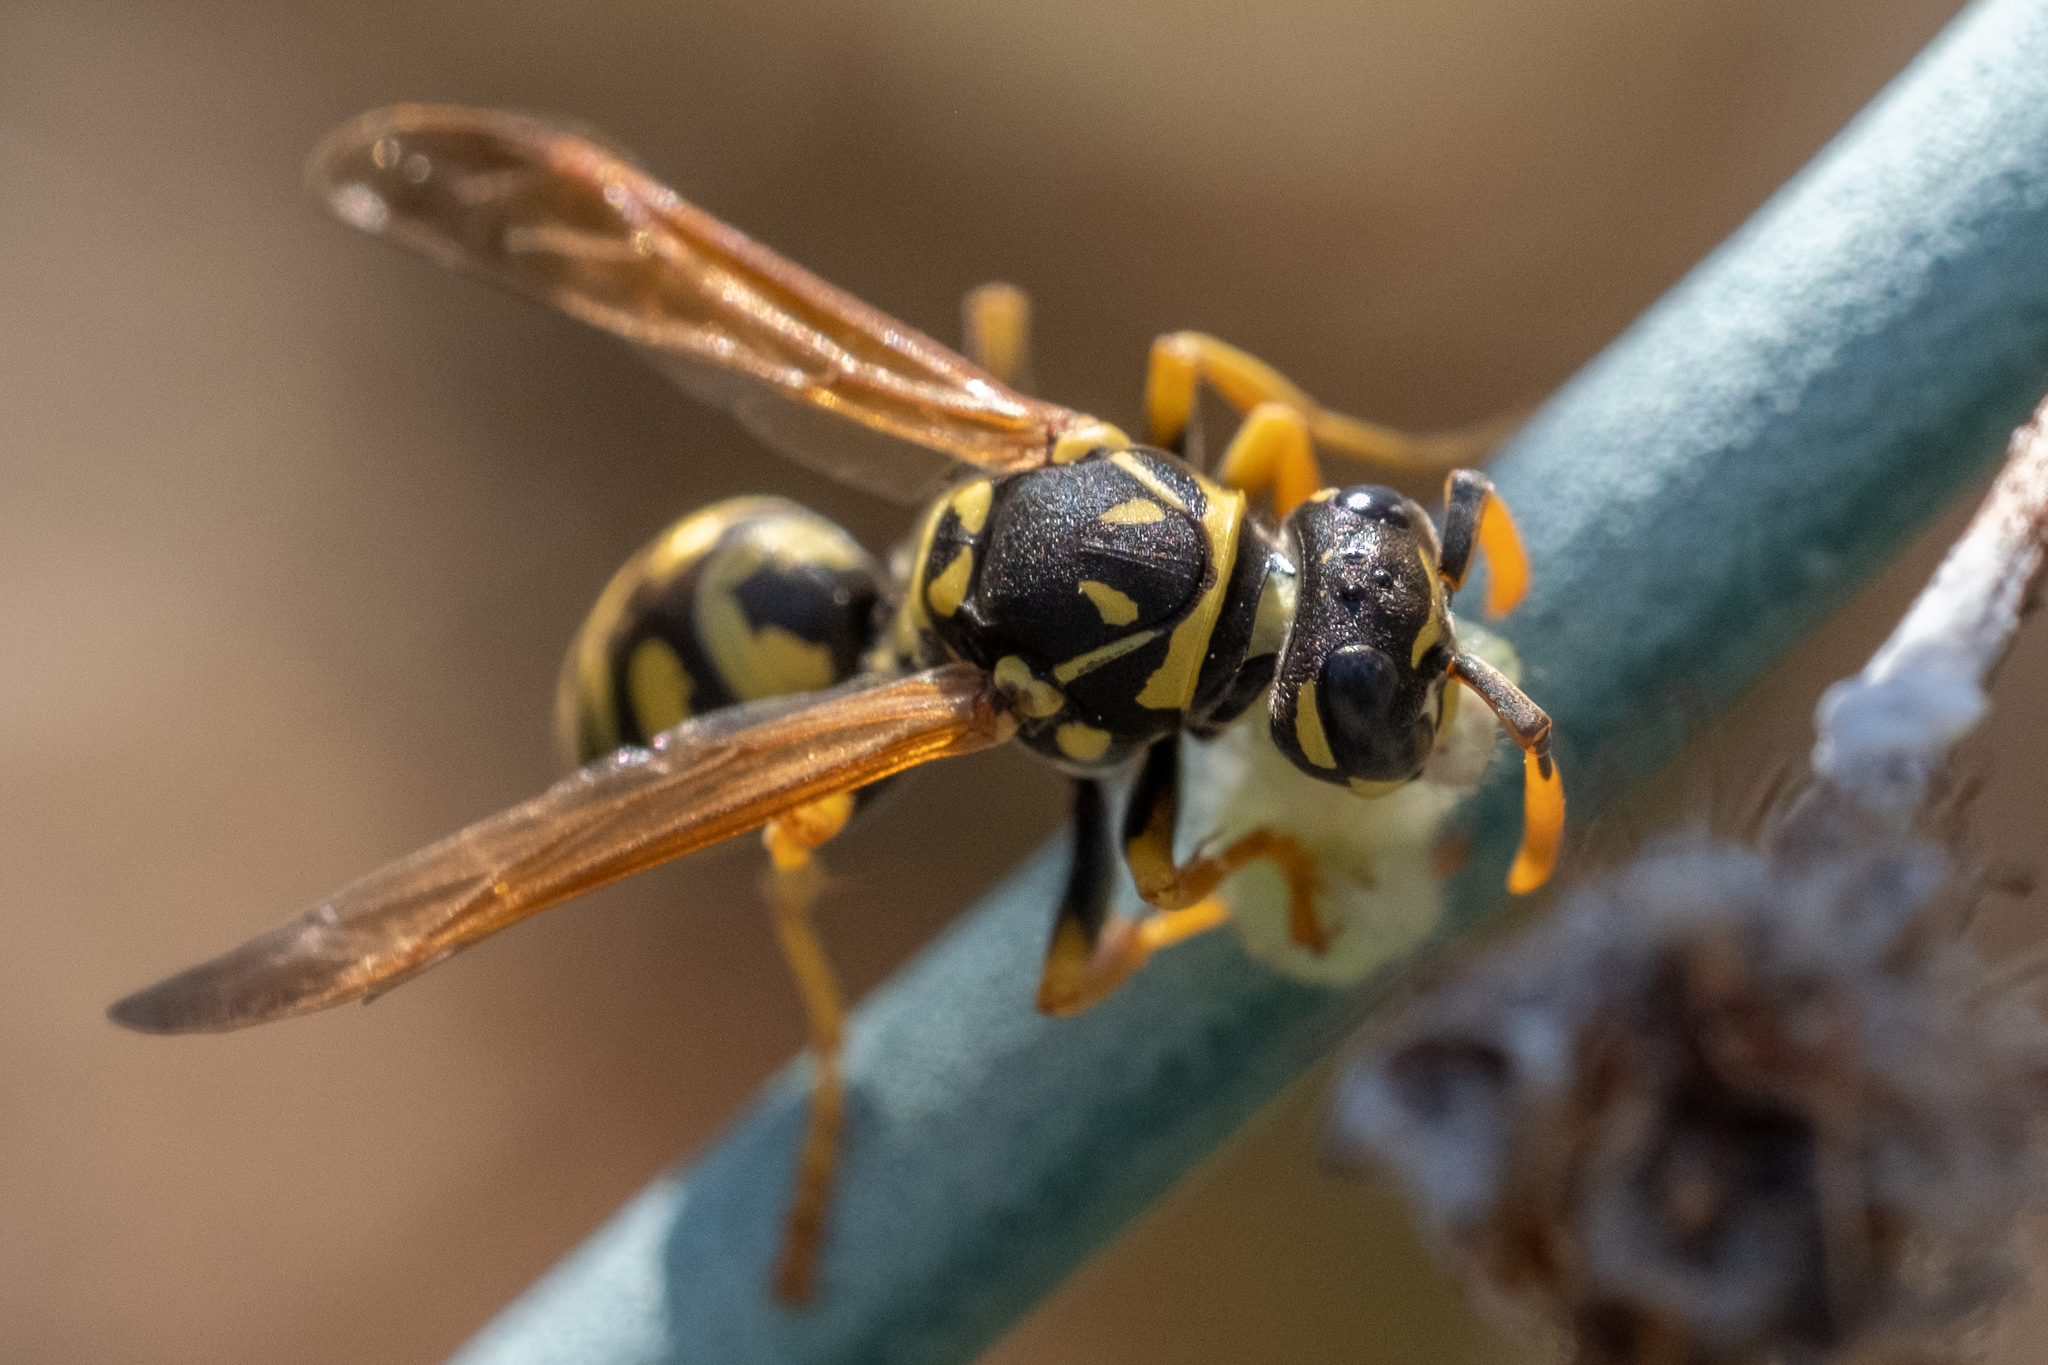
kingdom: Animalia
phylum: Arthropoda
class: Insecta
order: Hymenoptera
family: Eumenidae
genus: Polistes
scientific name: Polistes dominula
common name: Paper wasp
